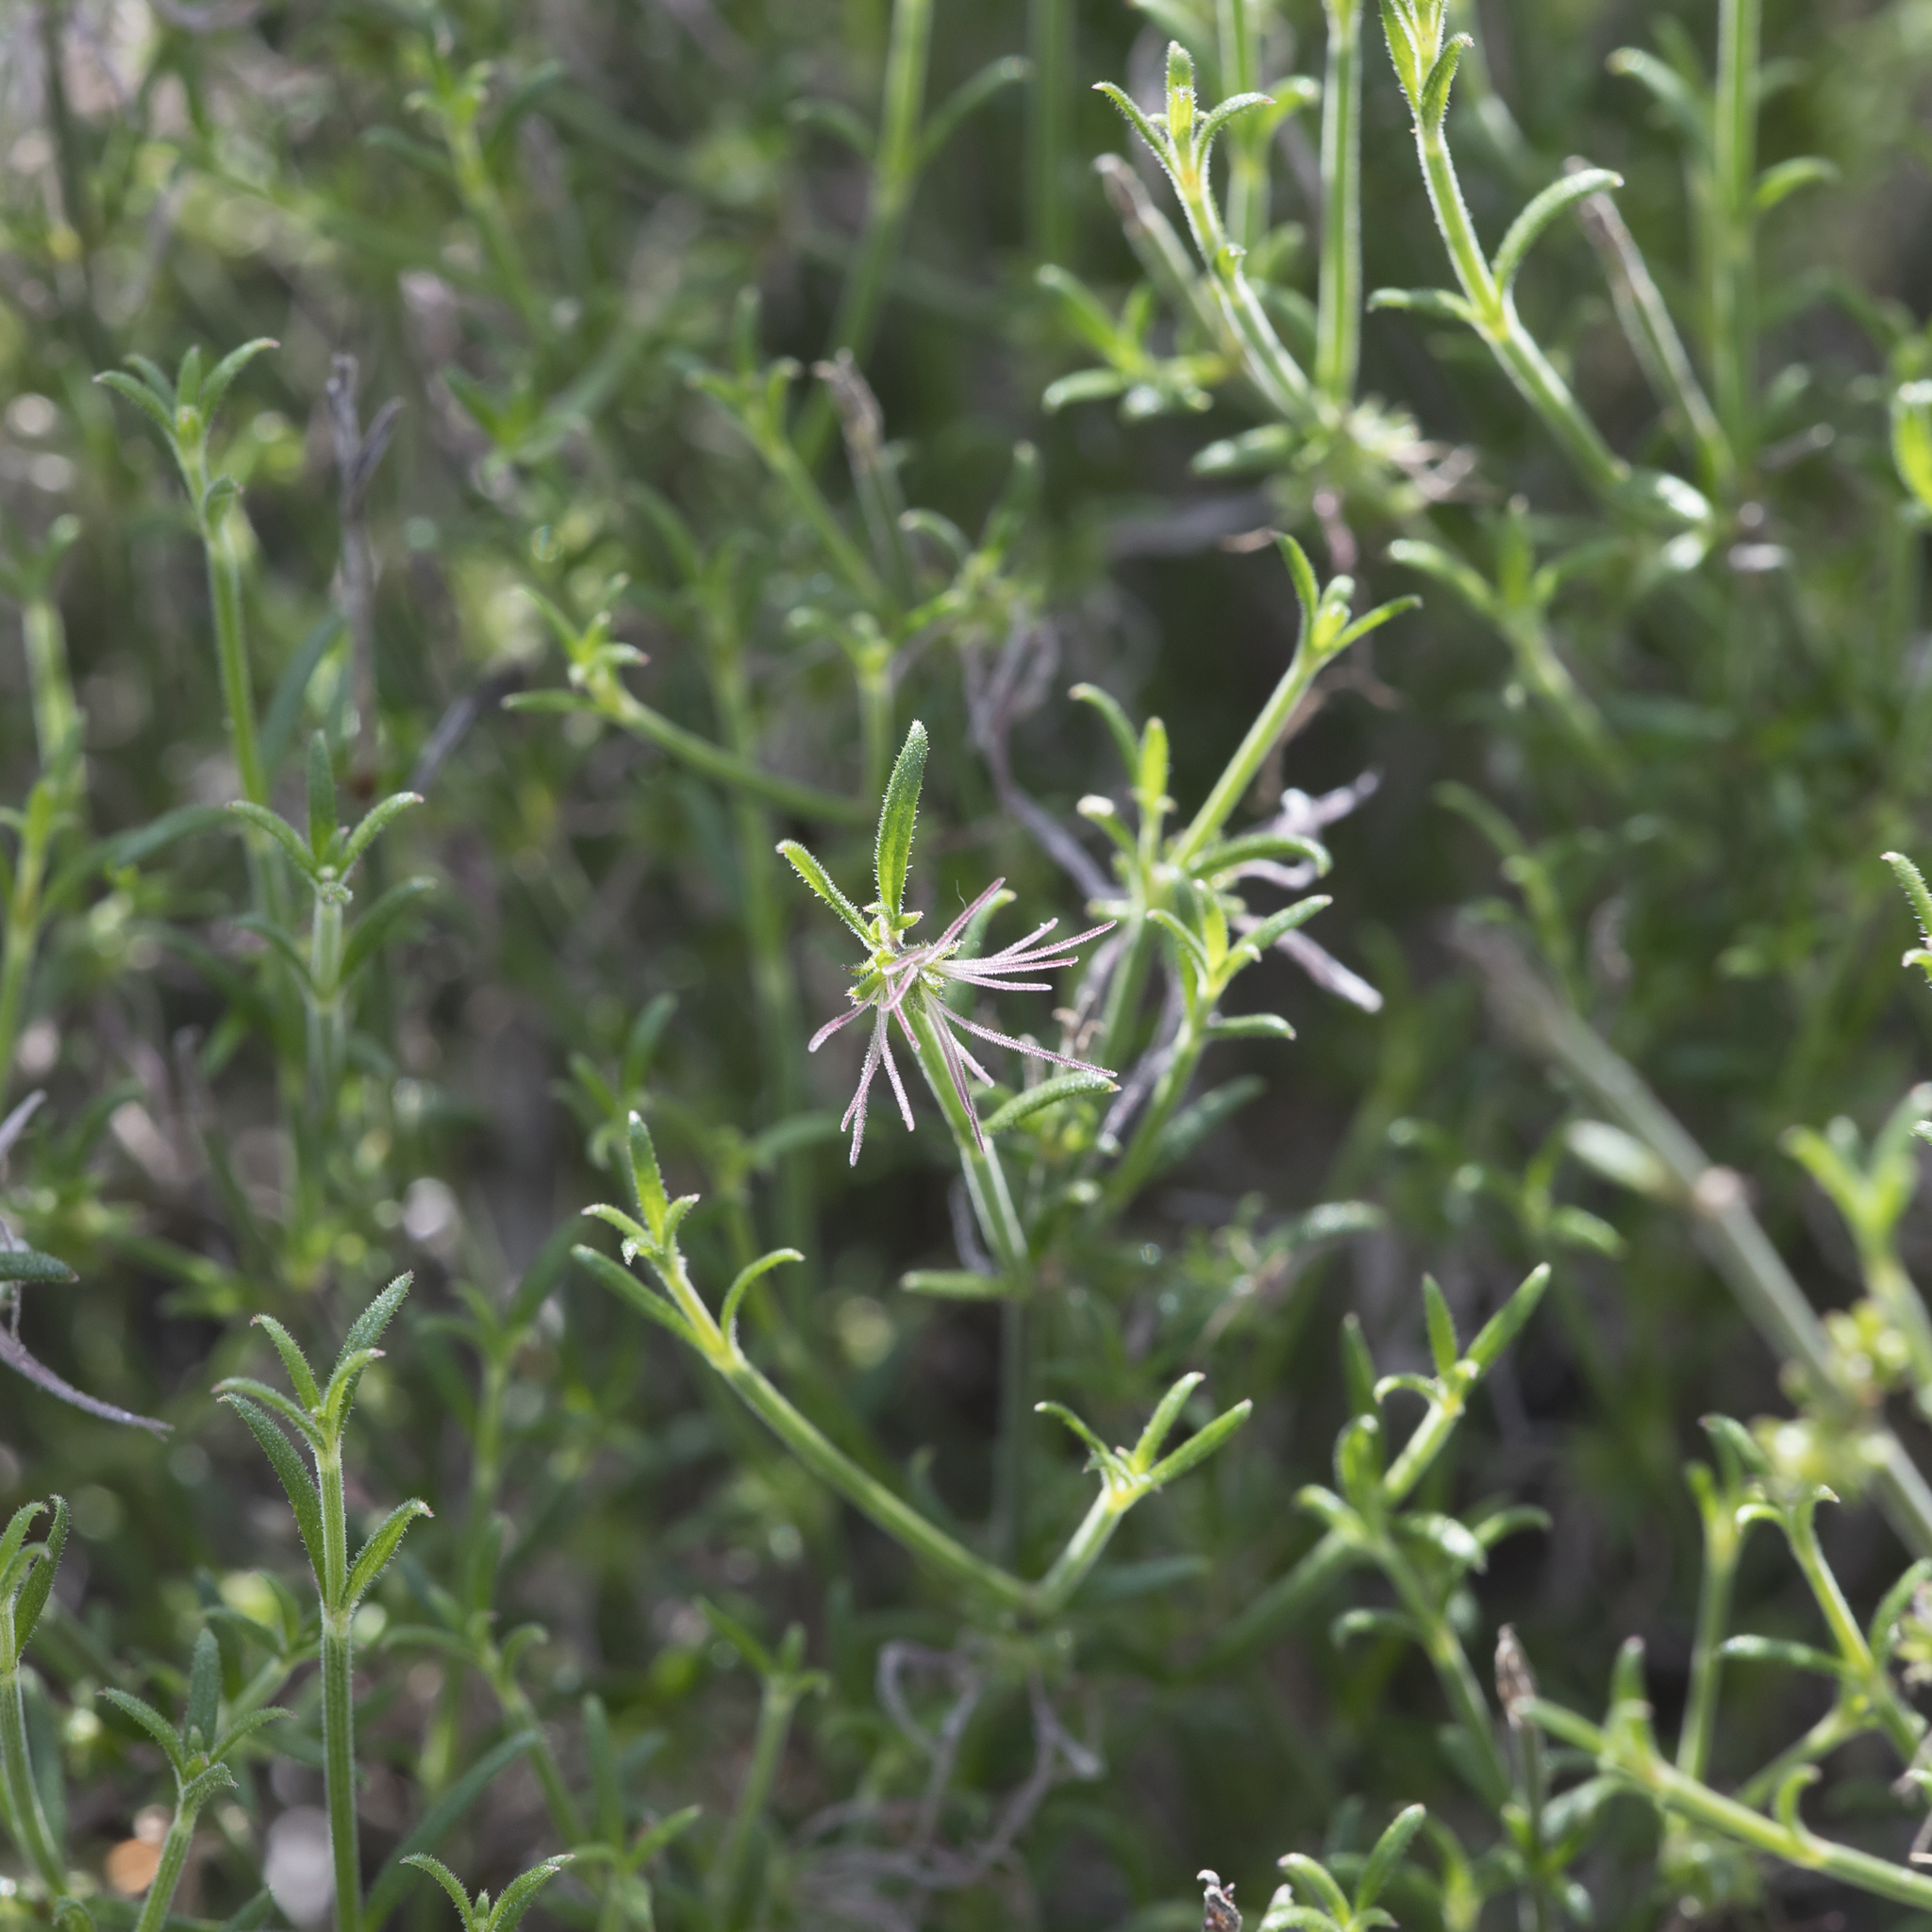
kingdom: Plantae
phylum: Tracheophyta
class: Magnoliopsida
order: Gentianales
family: Rubiaceae
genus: Opercularia
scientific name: Opercularia turpis
